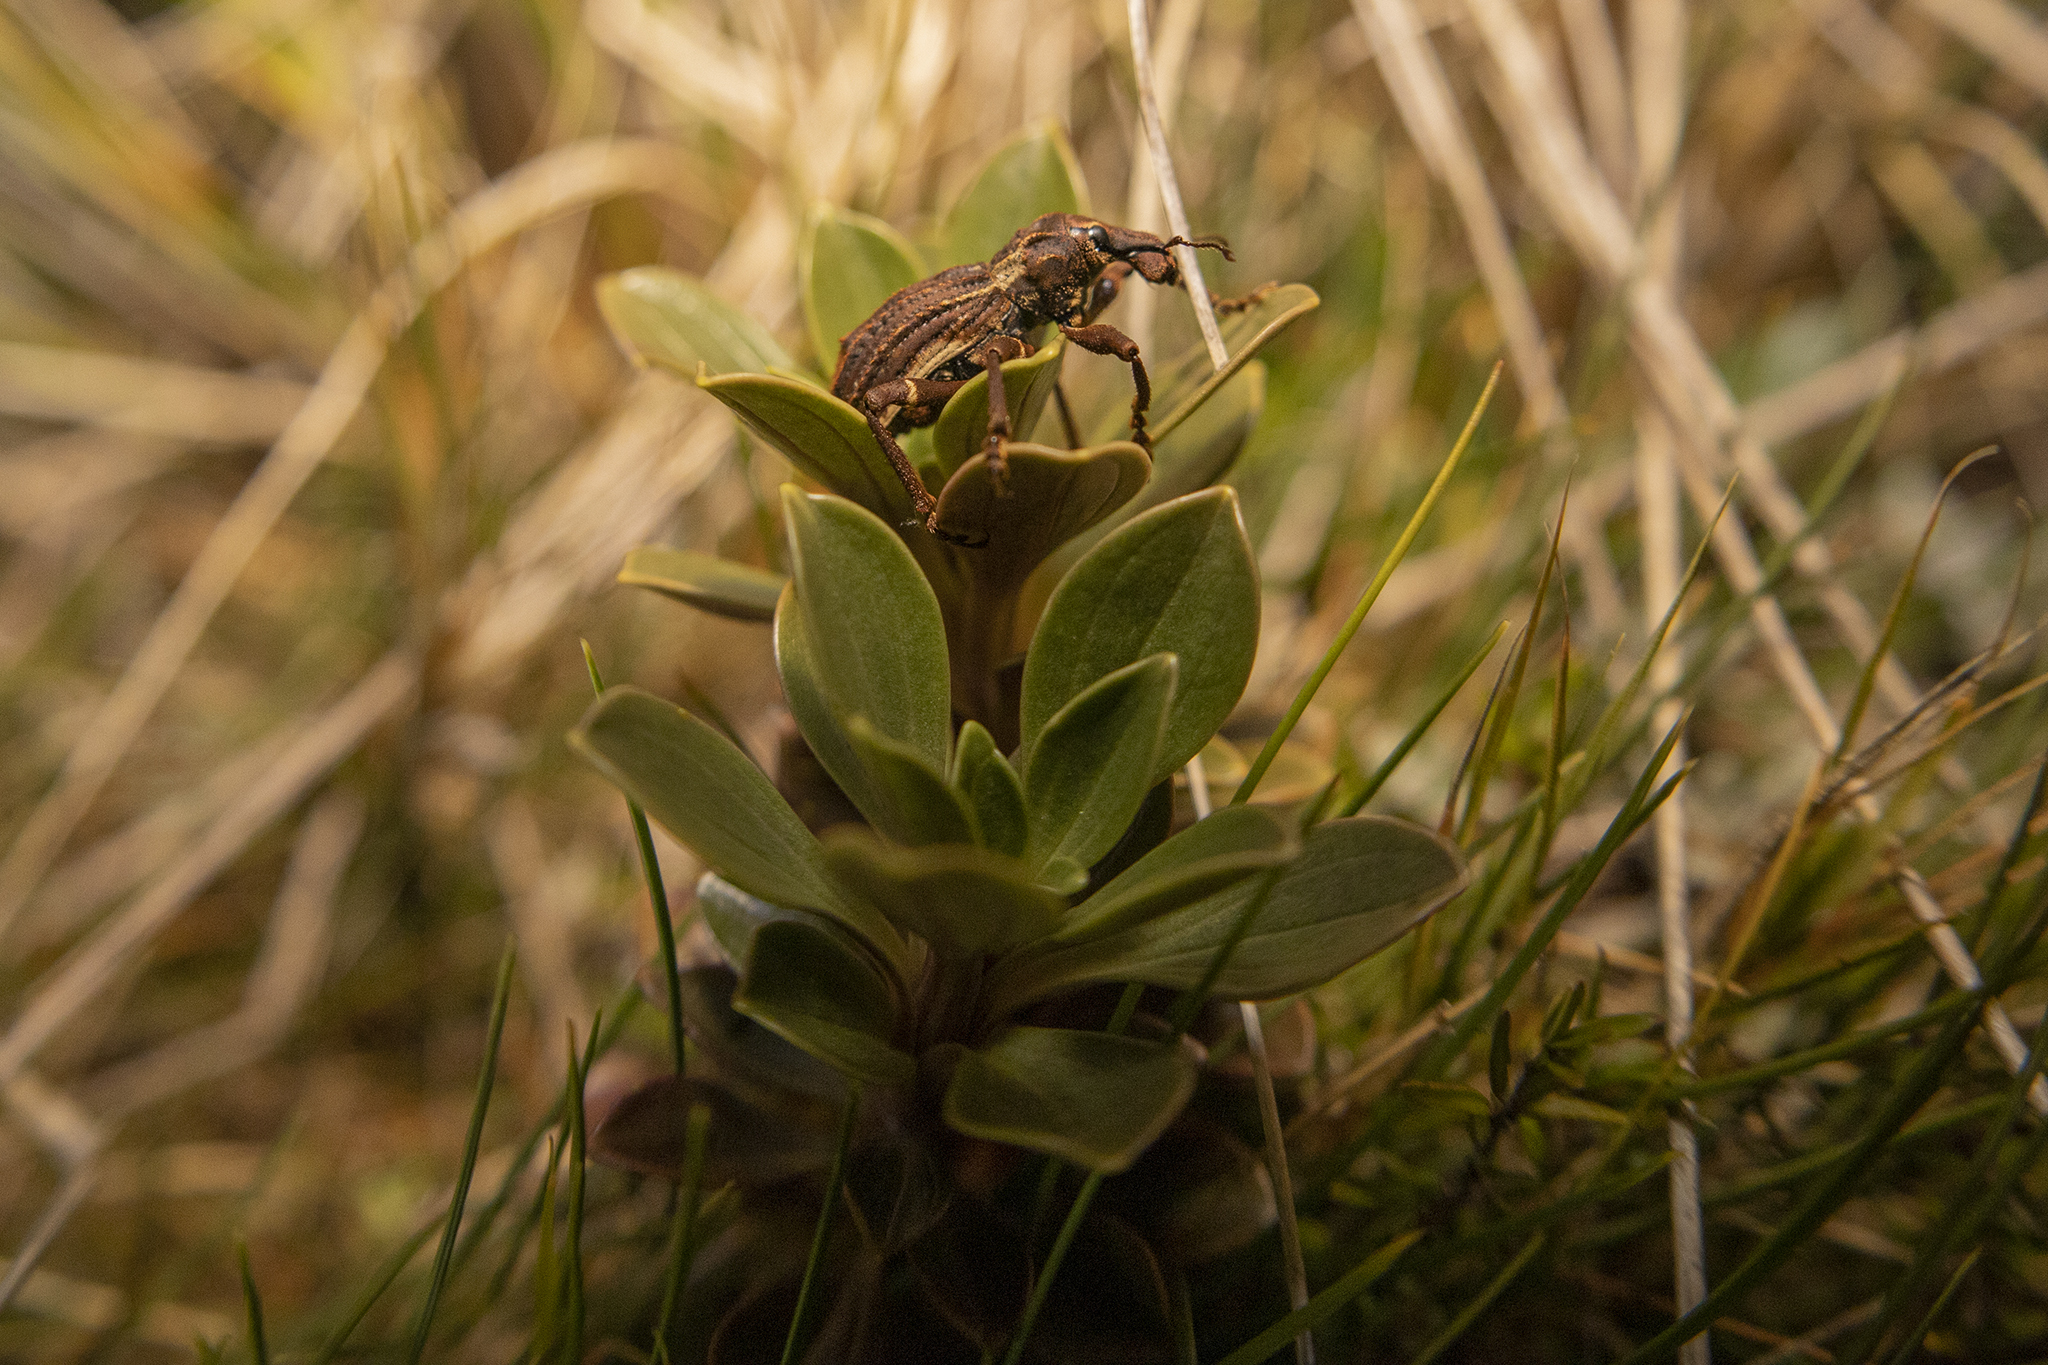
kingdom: Animalia
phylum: Arthropoda
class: Insecta
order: Coleoptera
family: Curculionidae
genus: Anagotus
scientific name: Anagotus
